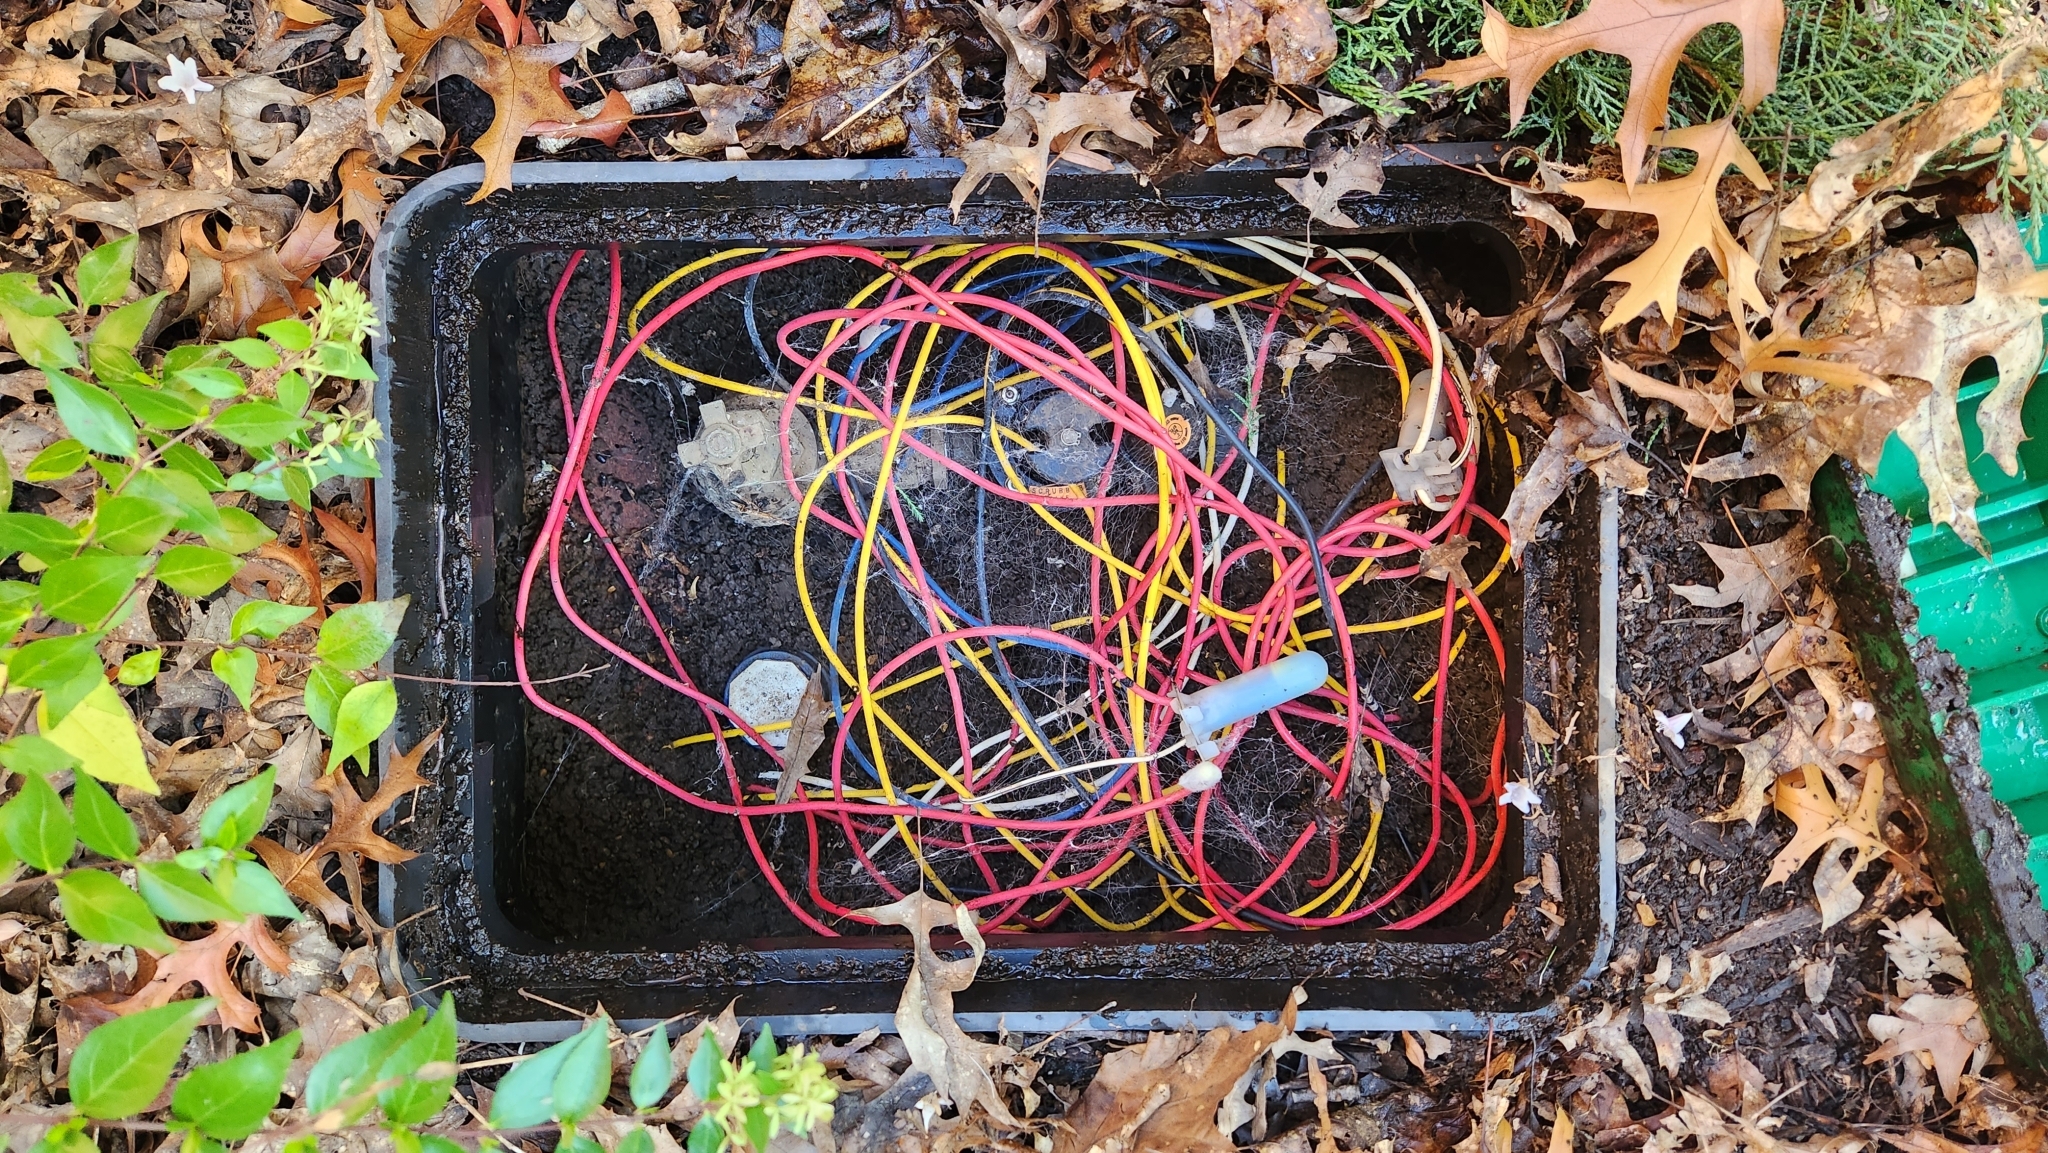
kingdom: Animalia
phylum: Mollusca
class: Gastropoda
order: Stylommatophora
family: Limacidae
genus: Limacus
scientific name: Limacus flavus
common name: Yellow gardenslug
